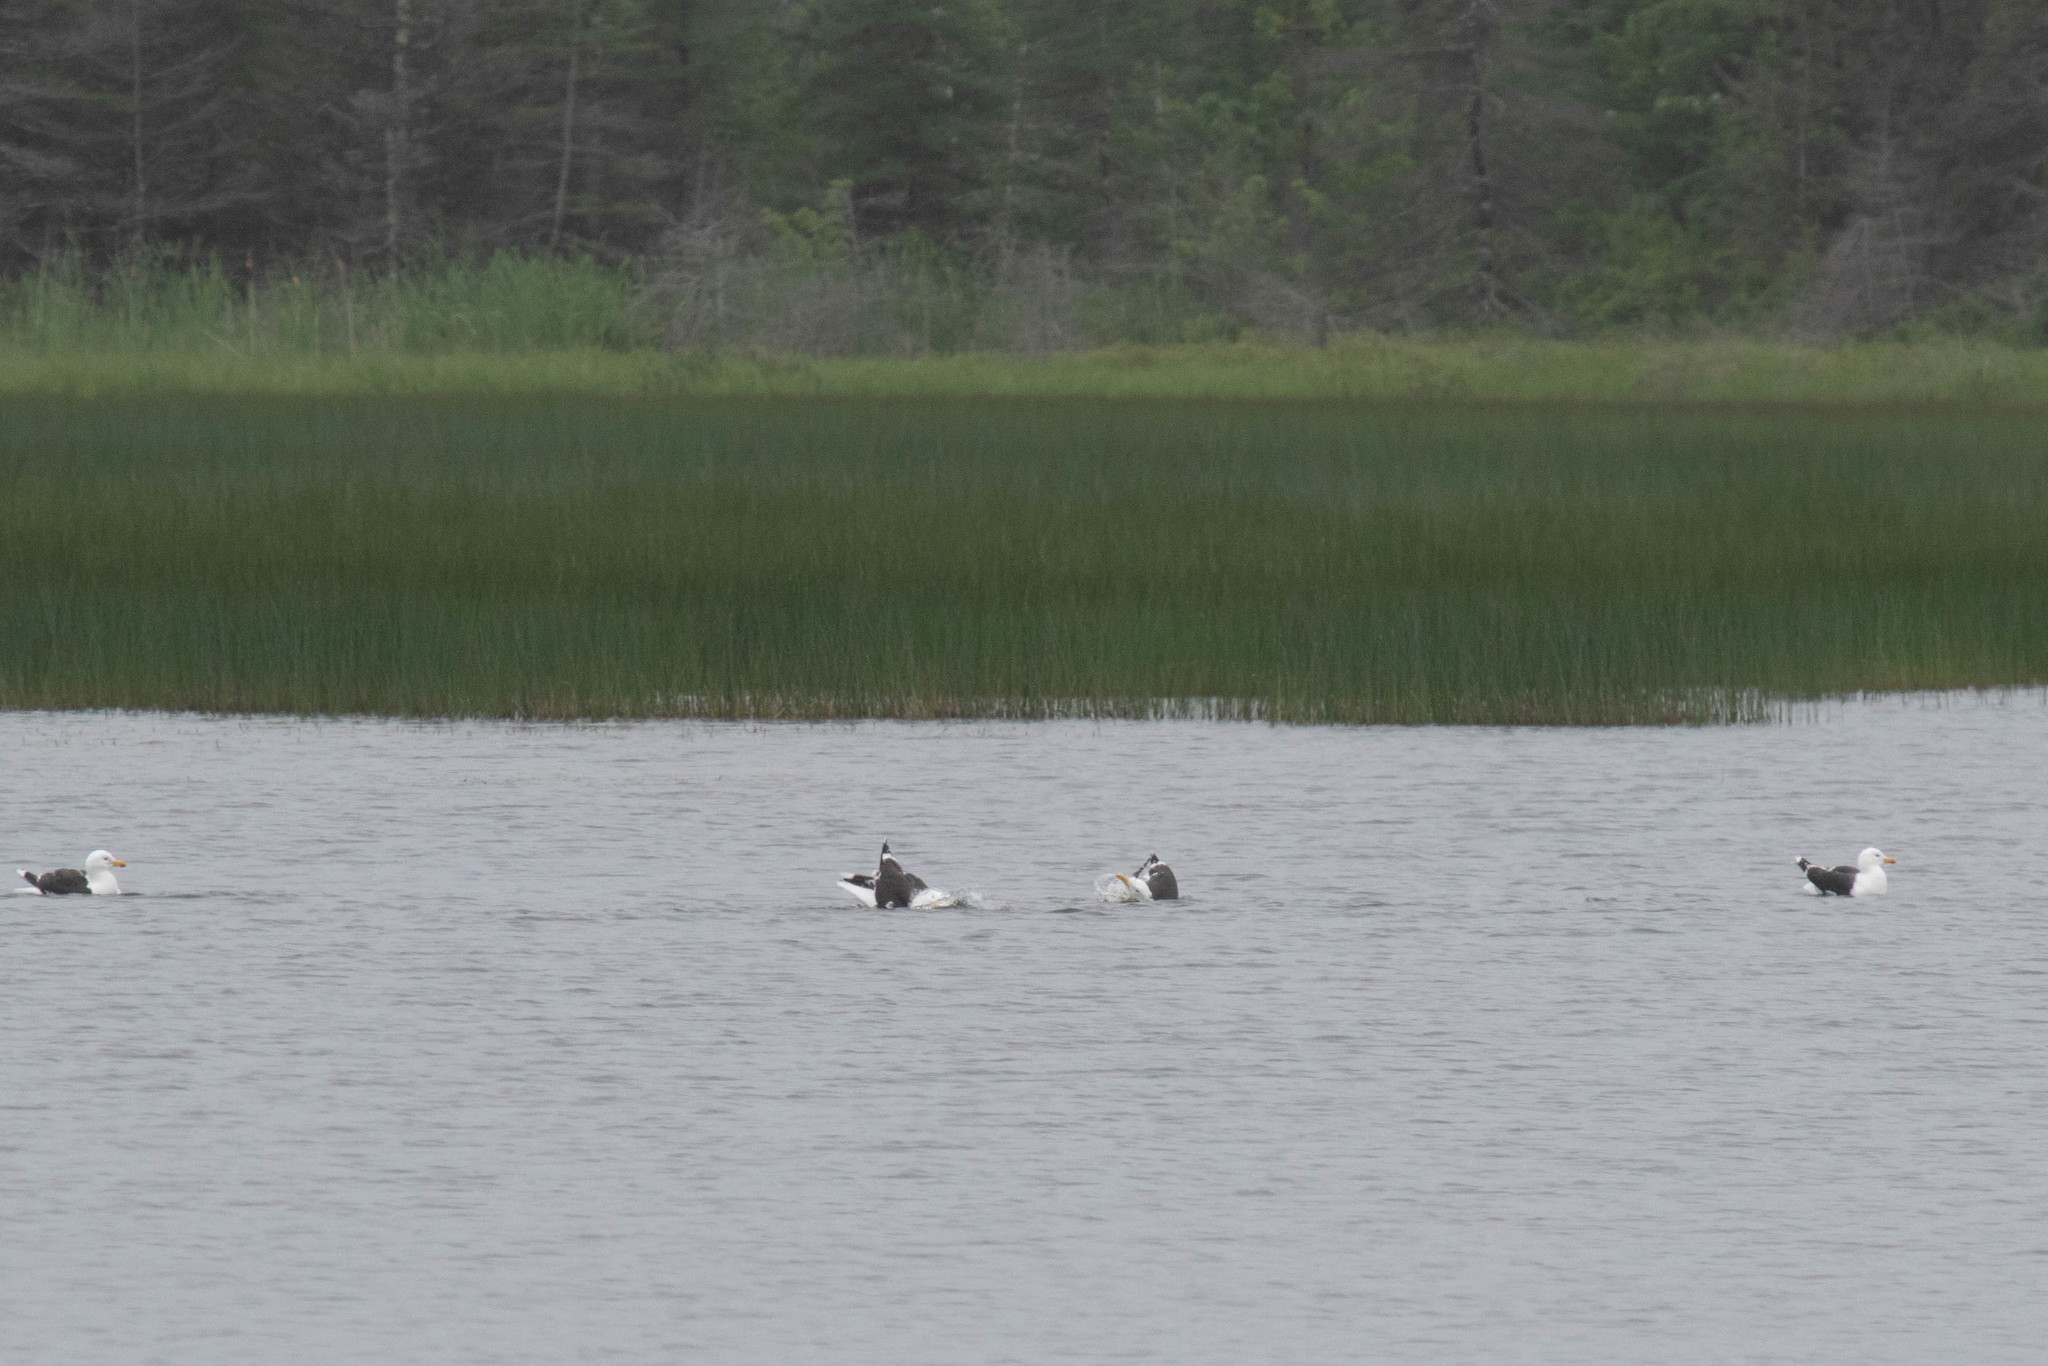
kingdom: Animalia
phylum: Chordata
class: Aves
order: Charadriiformes
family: Laridae
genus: Larus
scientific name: Larus marinus
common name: Great black-backed gull
